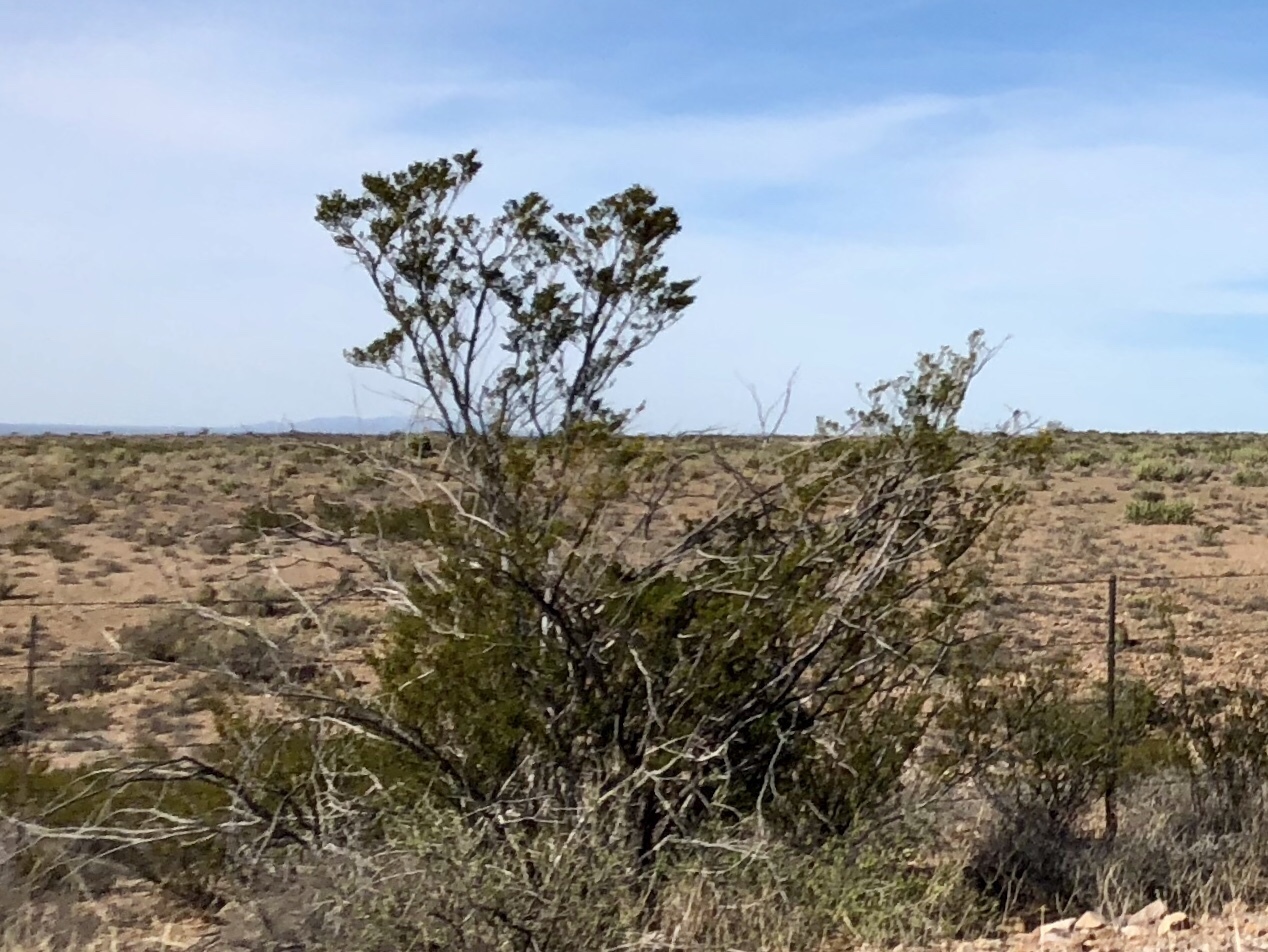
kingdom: Plantae
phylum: Tracheophyta
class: Magnoliopsida
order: Zygophyllales
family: Zygophyllaceae
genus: Larrea
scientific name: Larrea tridentata
